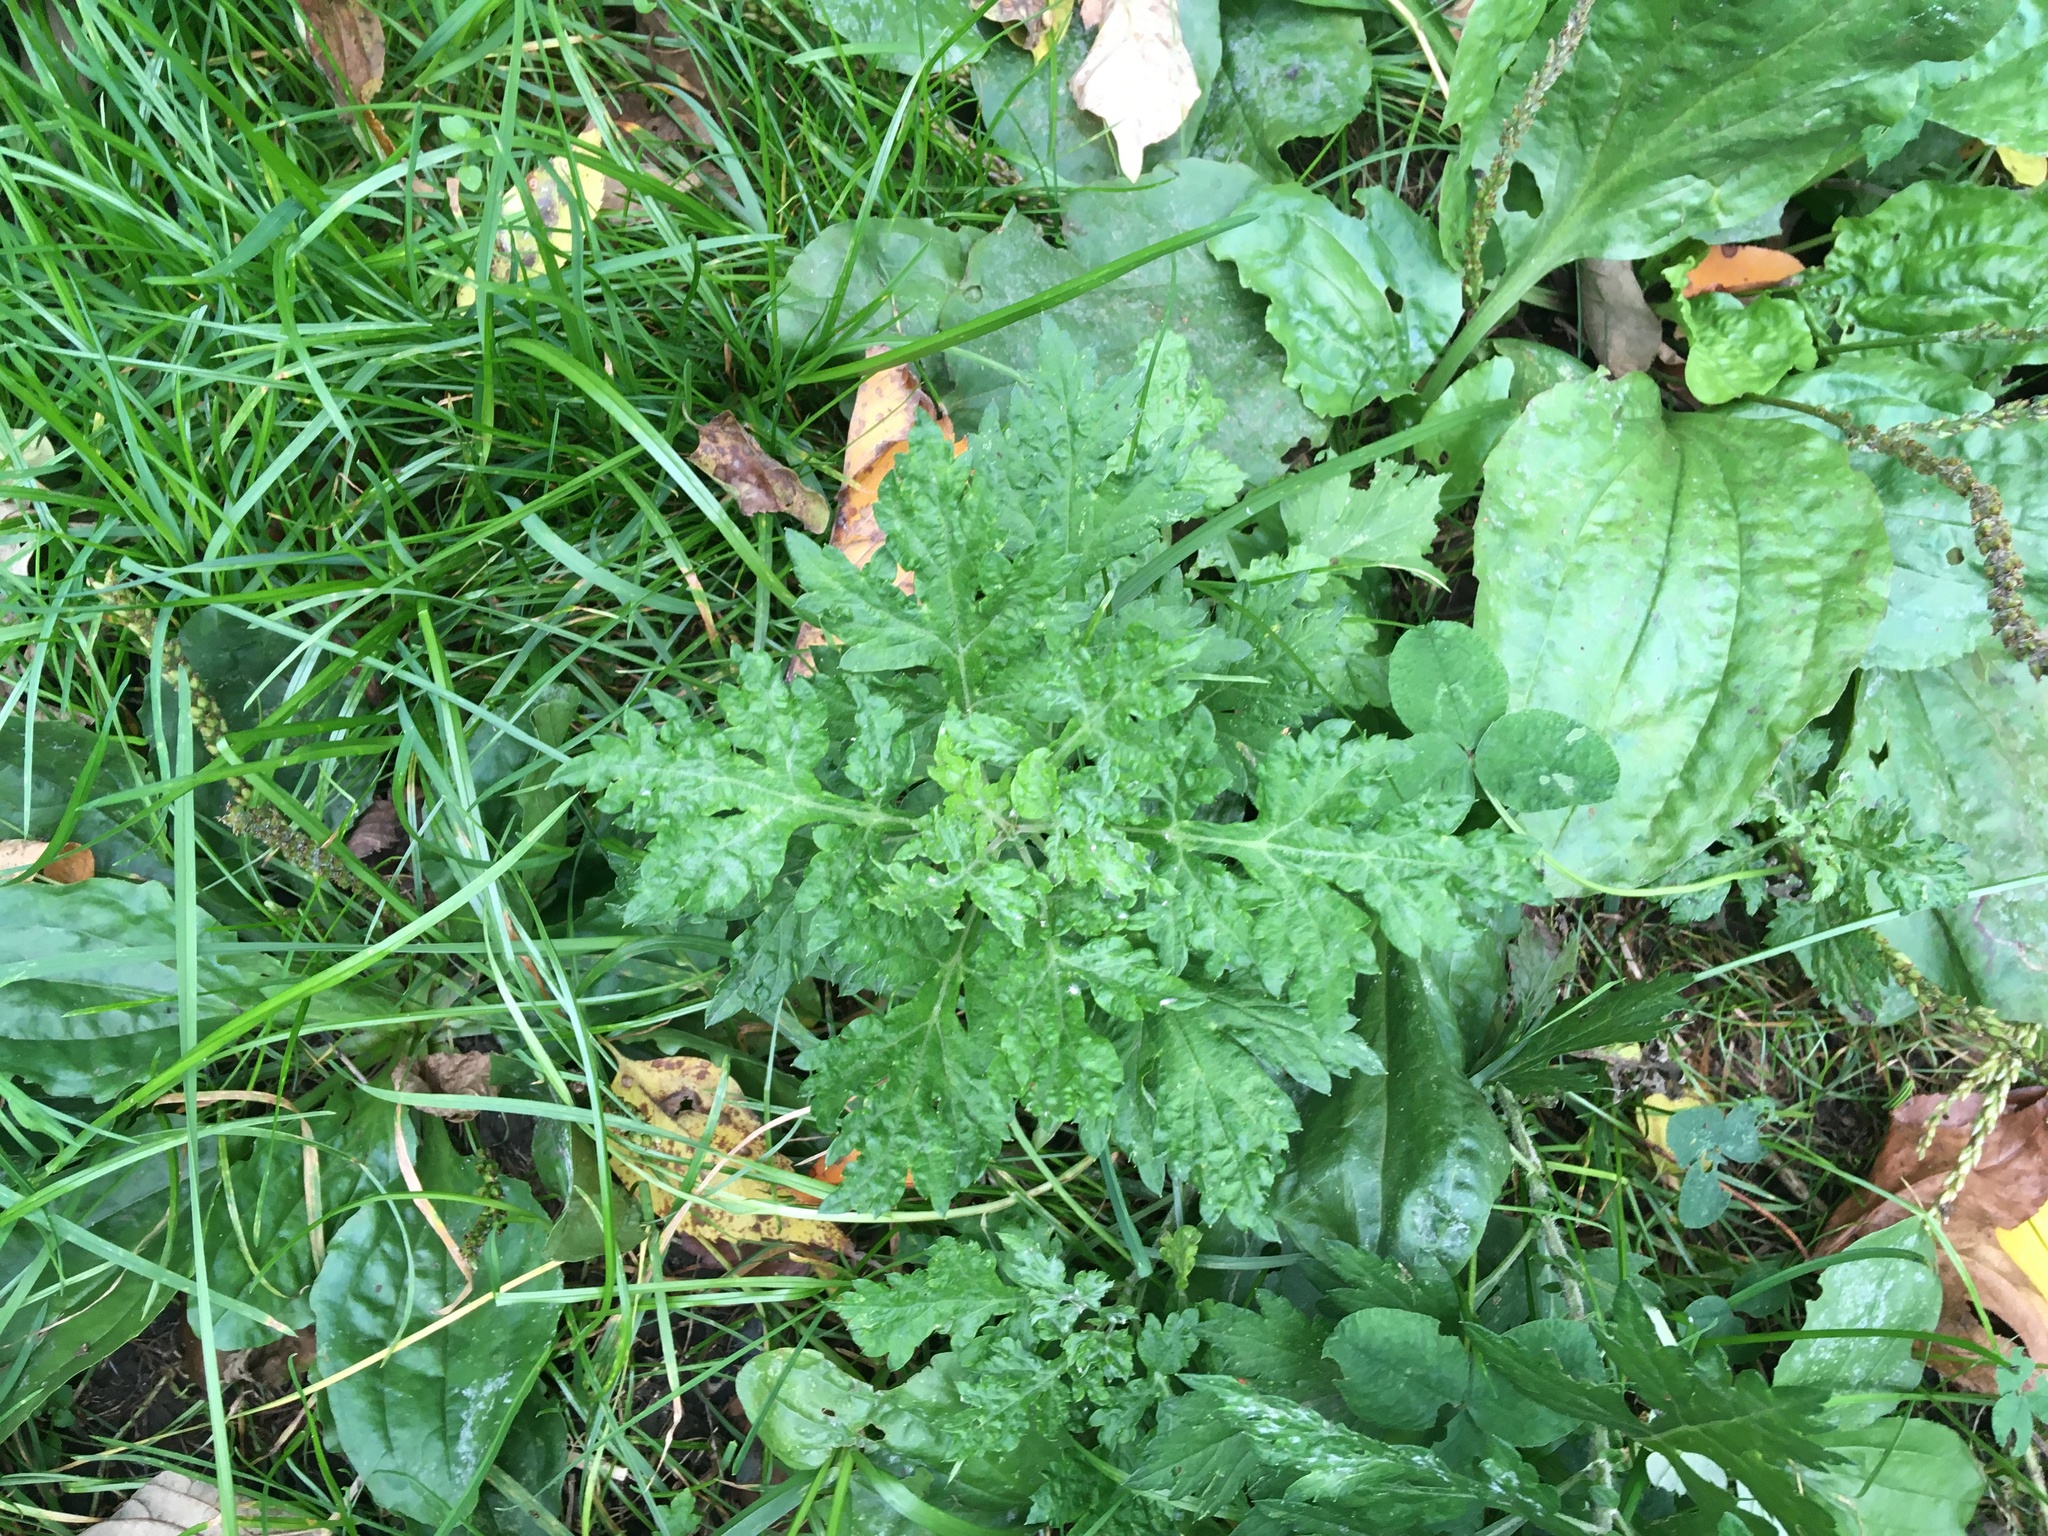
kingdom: Plantae
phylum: Tracheophyta
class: Magnoliopsida
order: Asterales
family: Asteraceae
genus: Artemisia
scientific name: Artemisia vulgaris
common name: Mugwort
